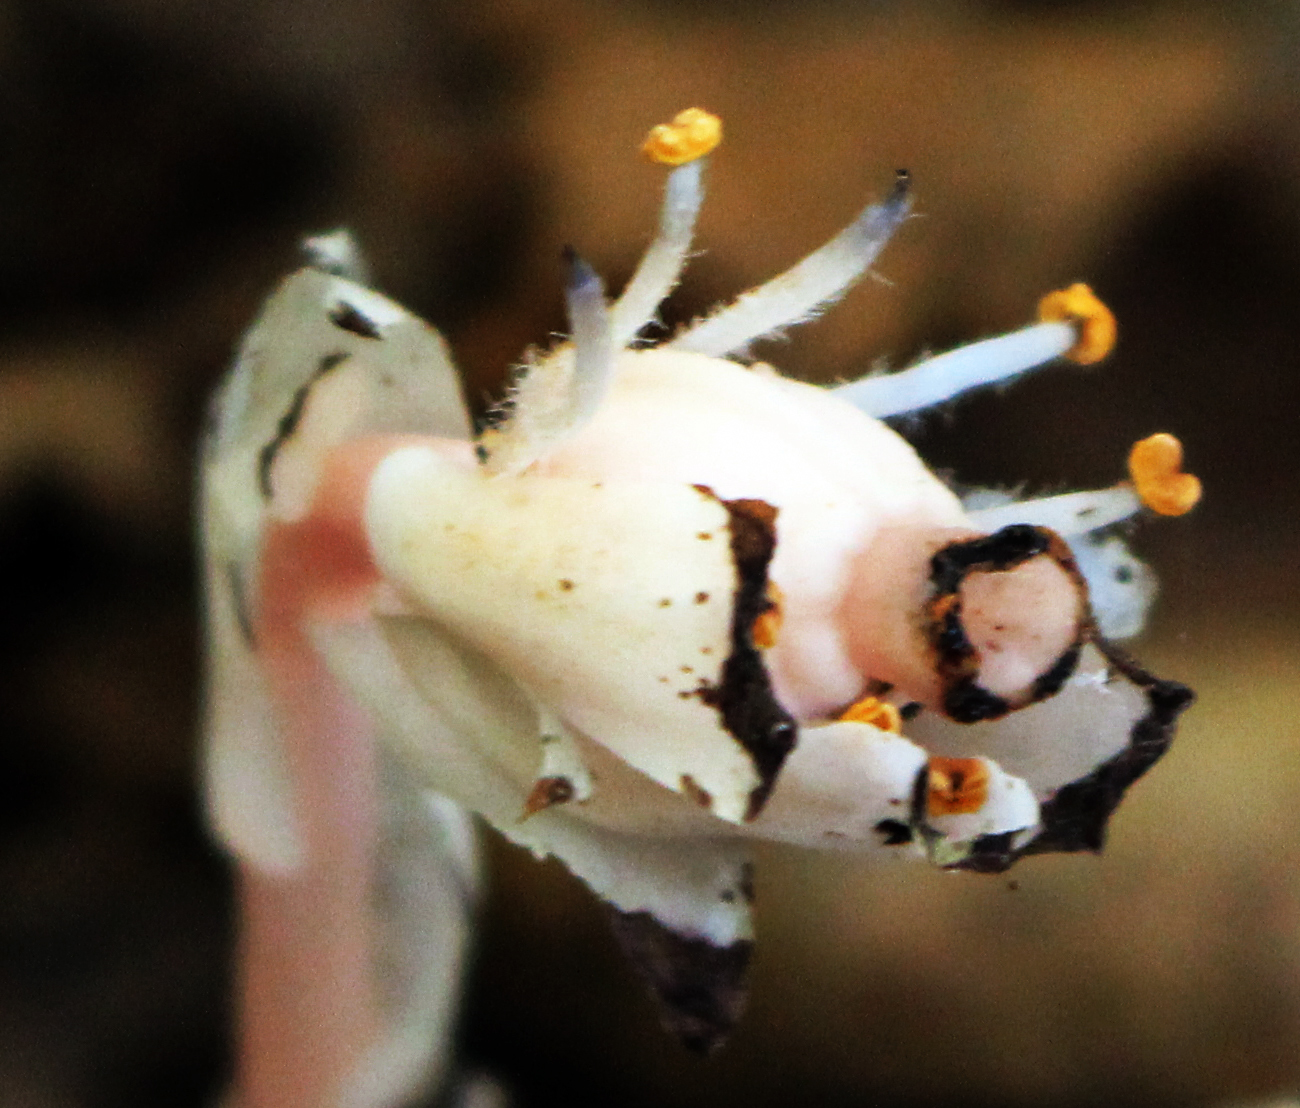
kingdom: Plantae
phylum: Tracheophyta
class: Magnoliopsida
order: Ericales
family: Ericaceae
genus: Monotropa
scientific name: Monotropa uniflora
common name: Convulsion root
